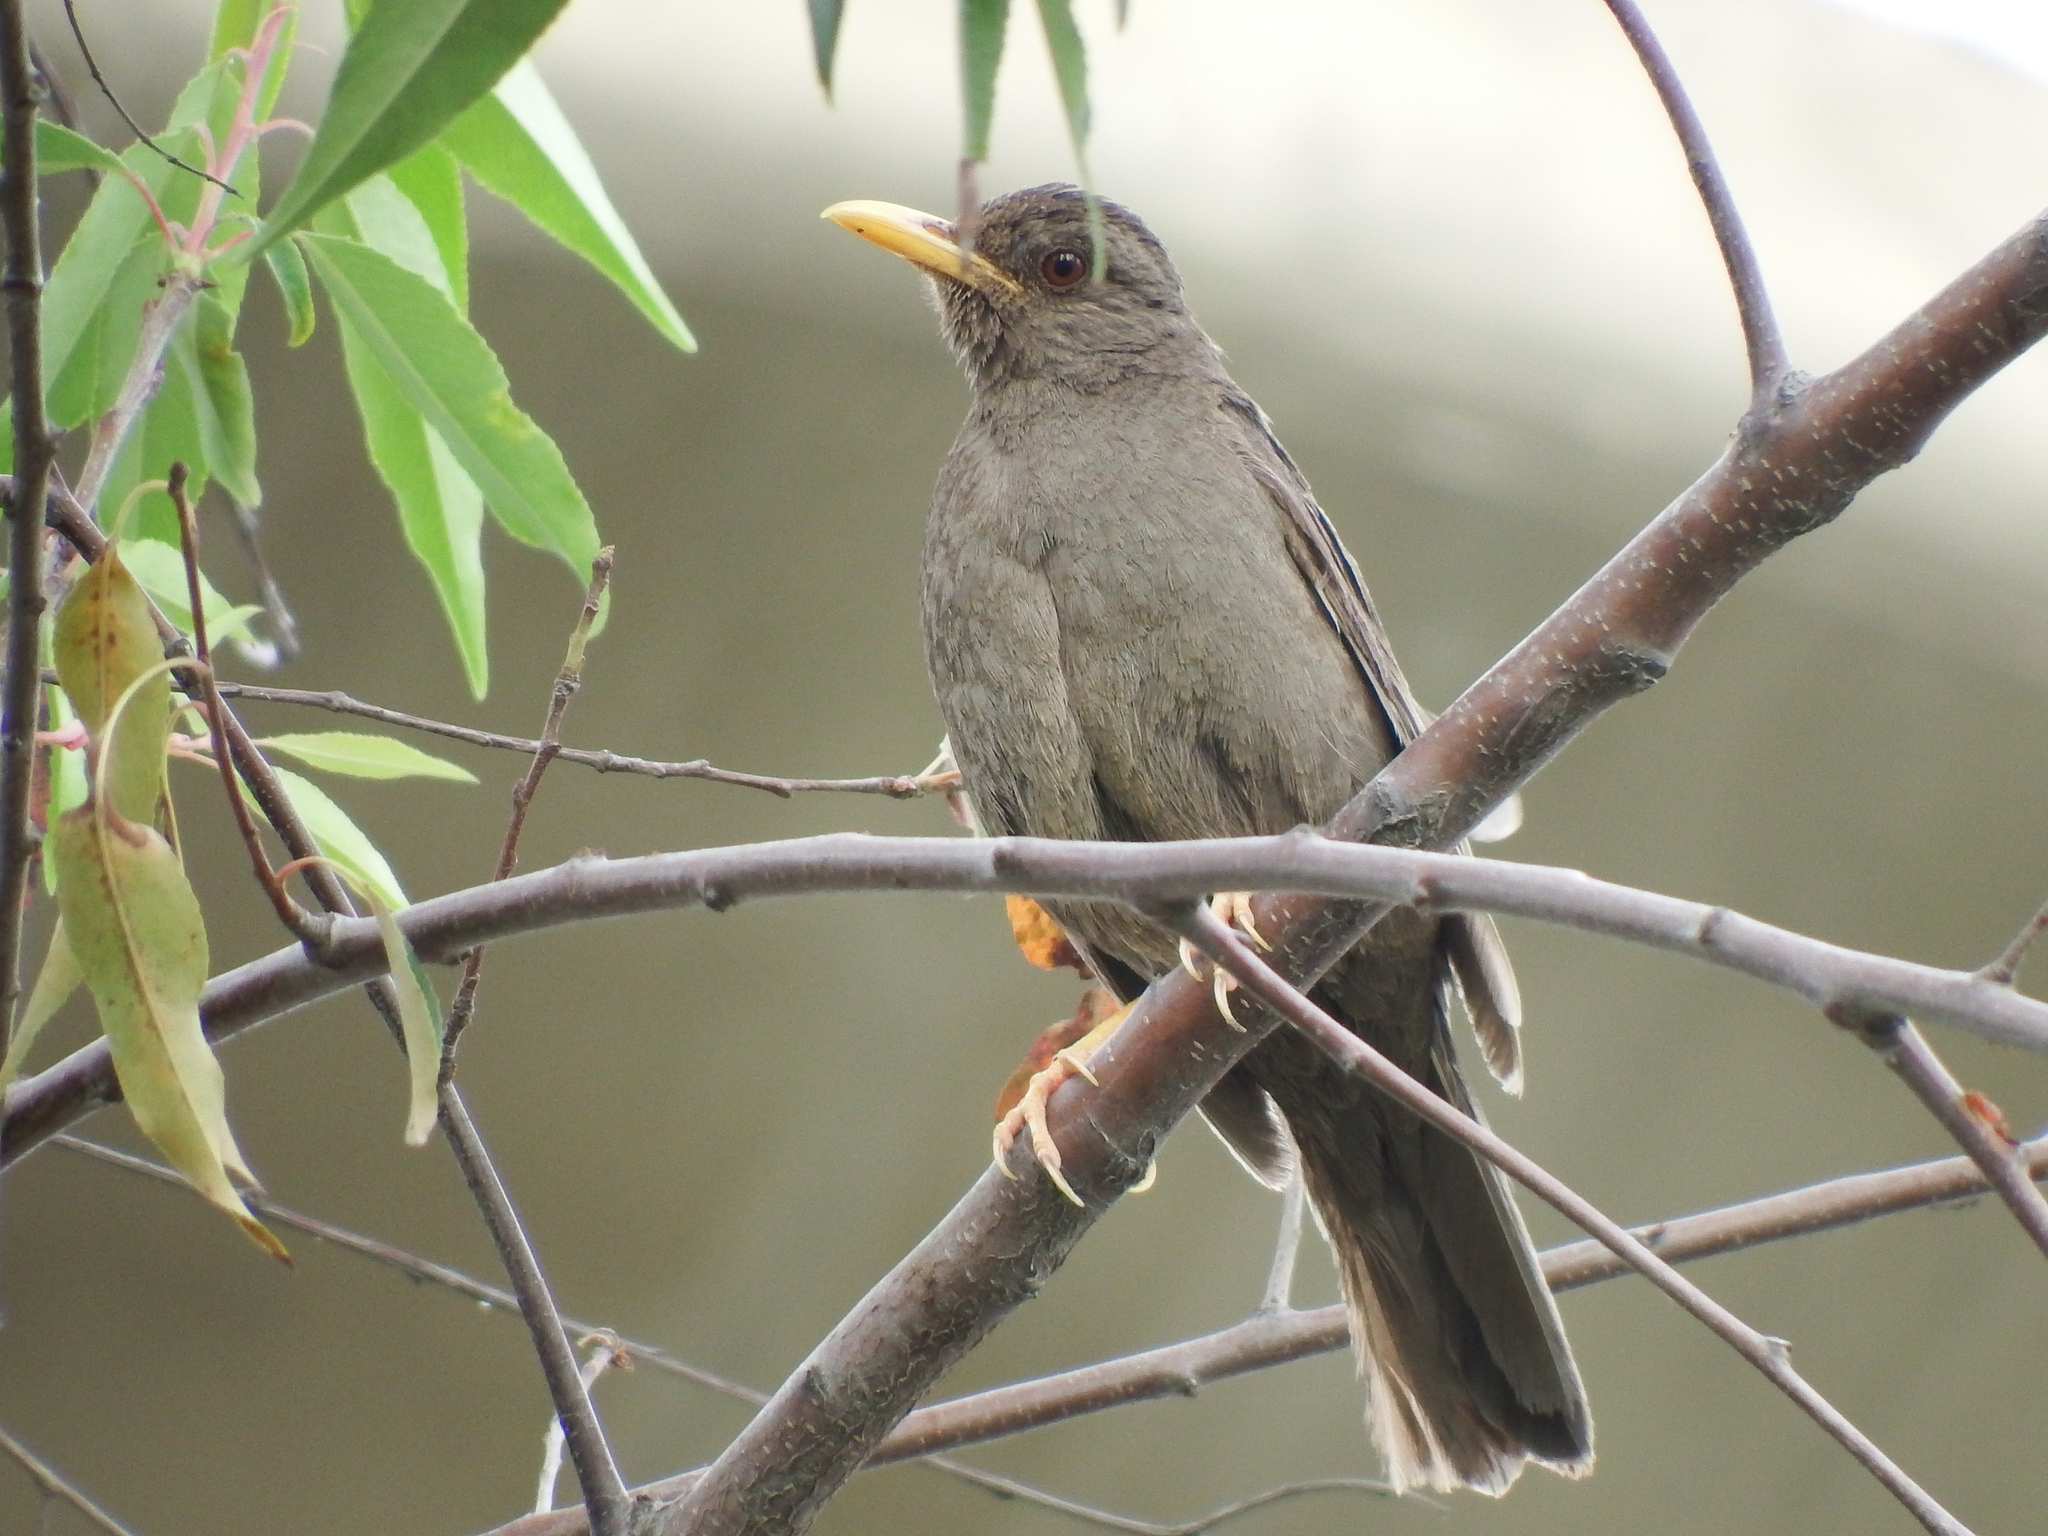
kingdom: Animalia
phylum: Chordata
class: Aves
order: Passeriformes
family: Turdidae
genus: Turdus
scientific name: Turdus chiguanco
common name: Chiguanco thrush
